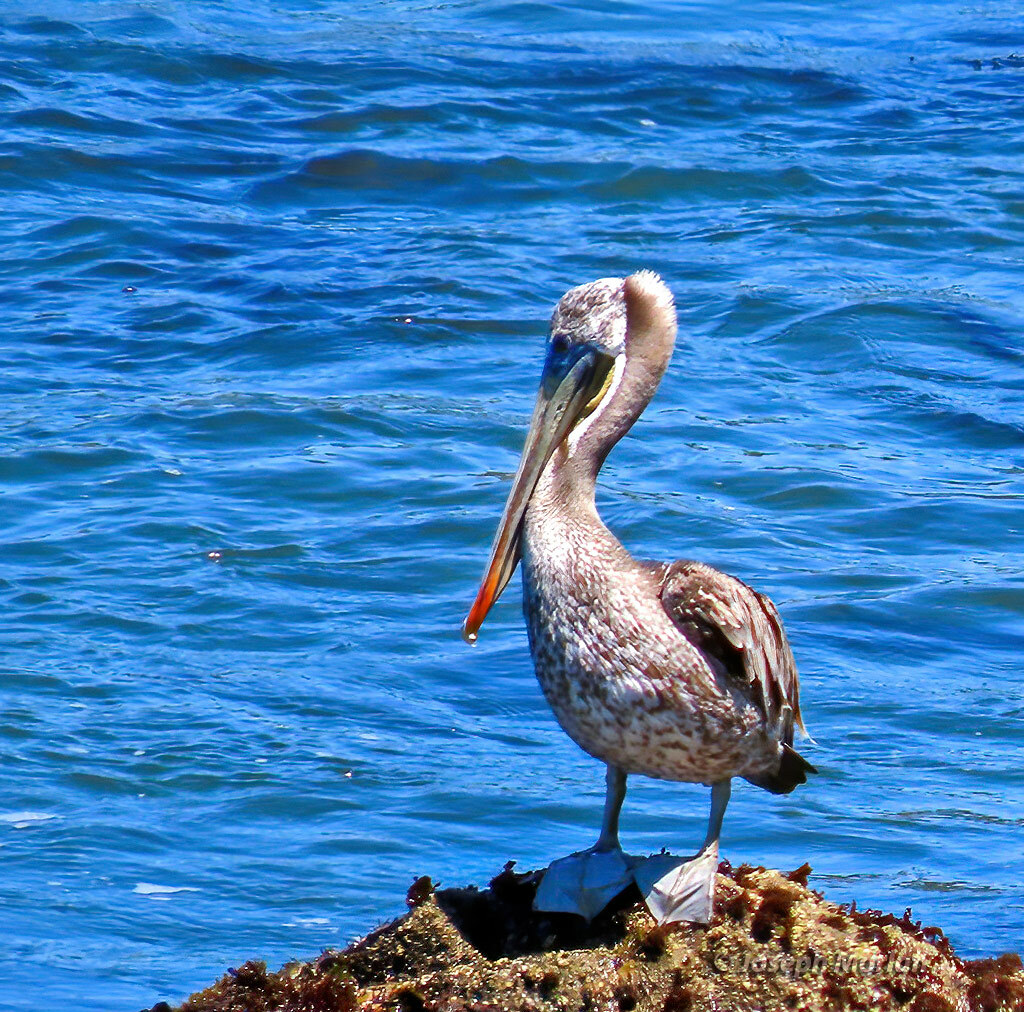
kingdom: Animalia
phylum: Chordata
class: Aves
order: Pelecaniformes
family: Pelecanidae
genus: Pelecanus
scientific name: Pelecanus occidentalis
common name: Brown pelican
